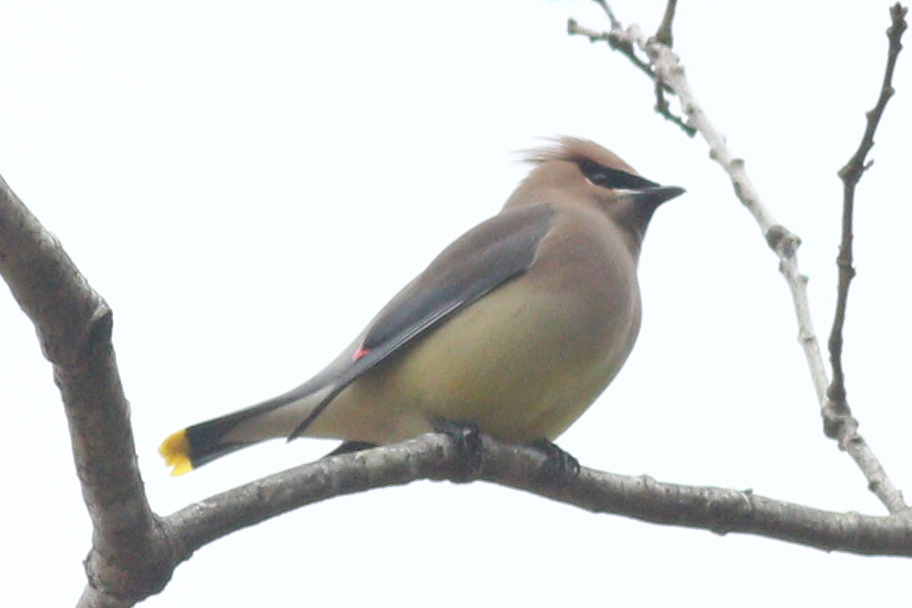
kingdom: Animalia
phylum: Chordata
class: Aves
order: Passeriformes
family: Bombycillidae
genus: Bombycilla
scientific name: Bombycilla cedrorum
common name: Cedar waxwing
